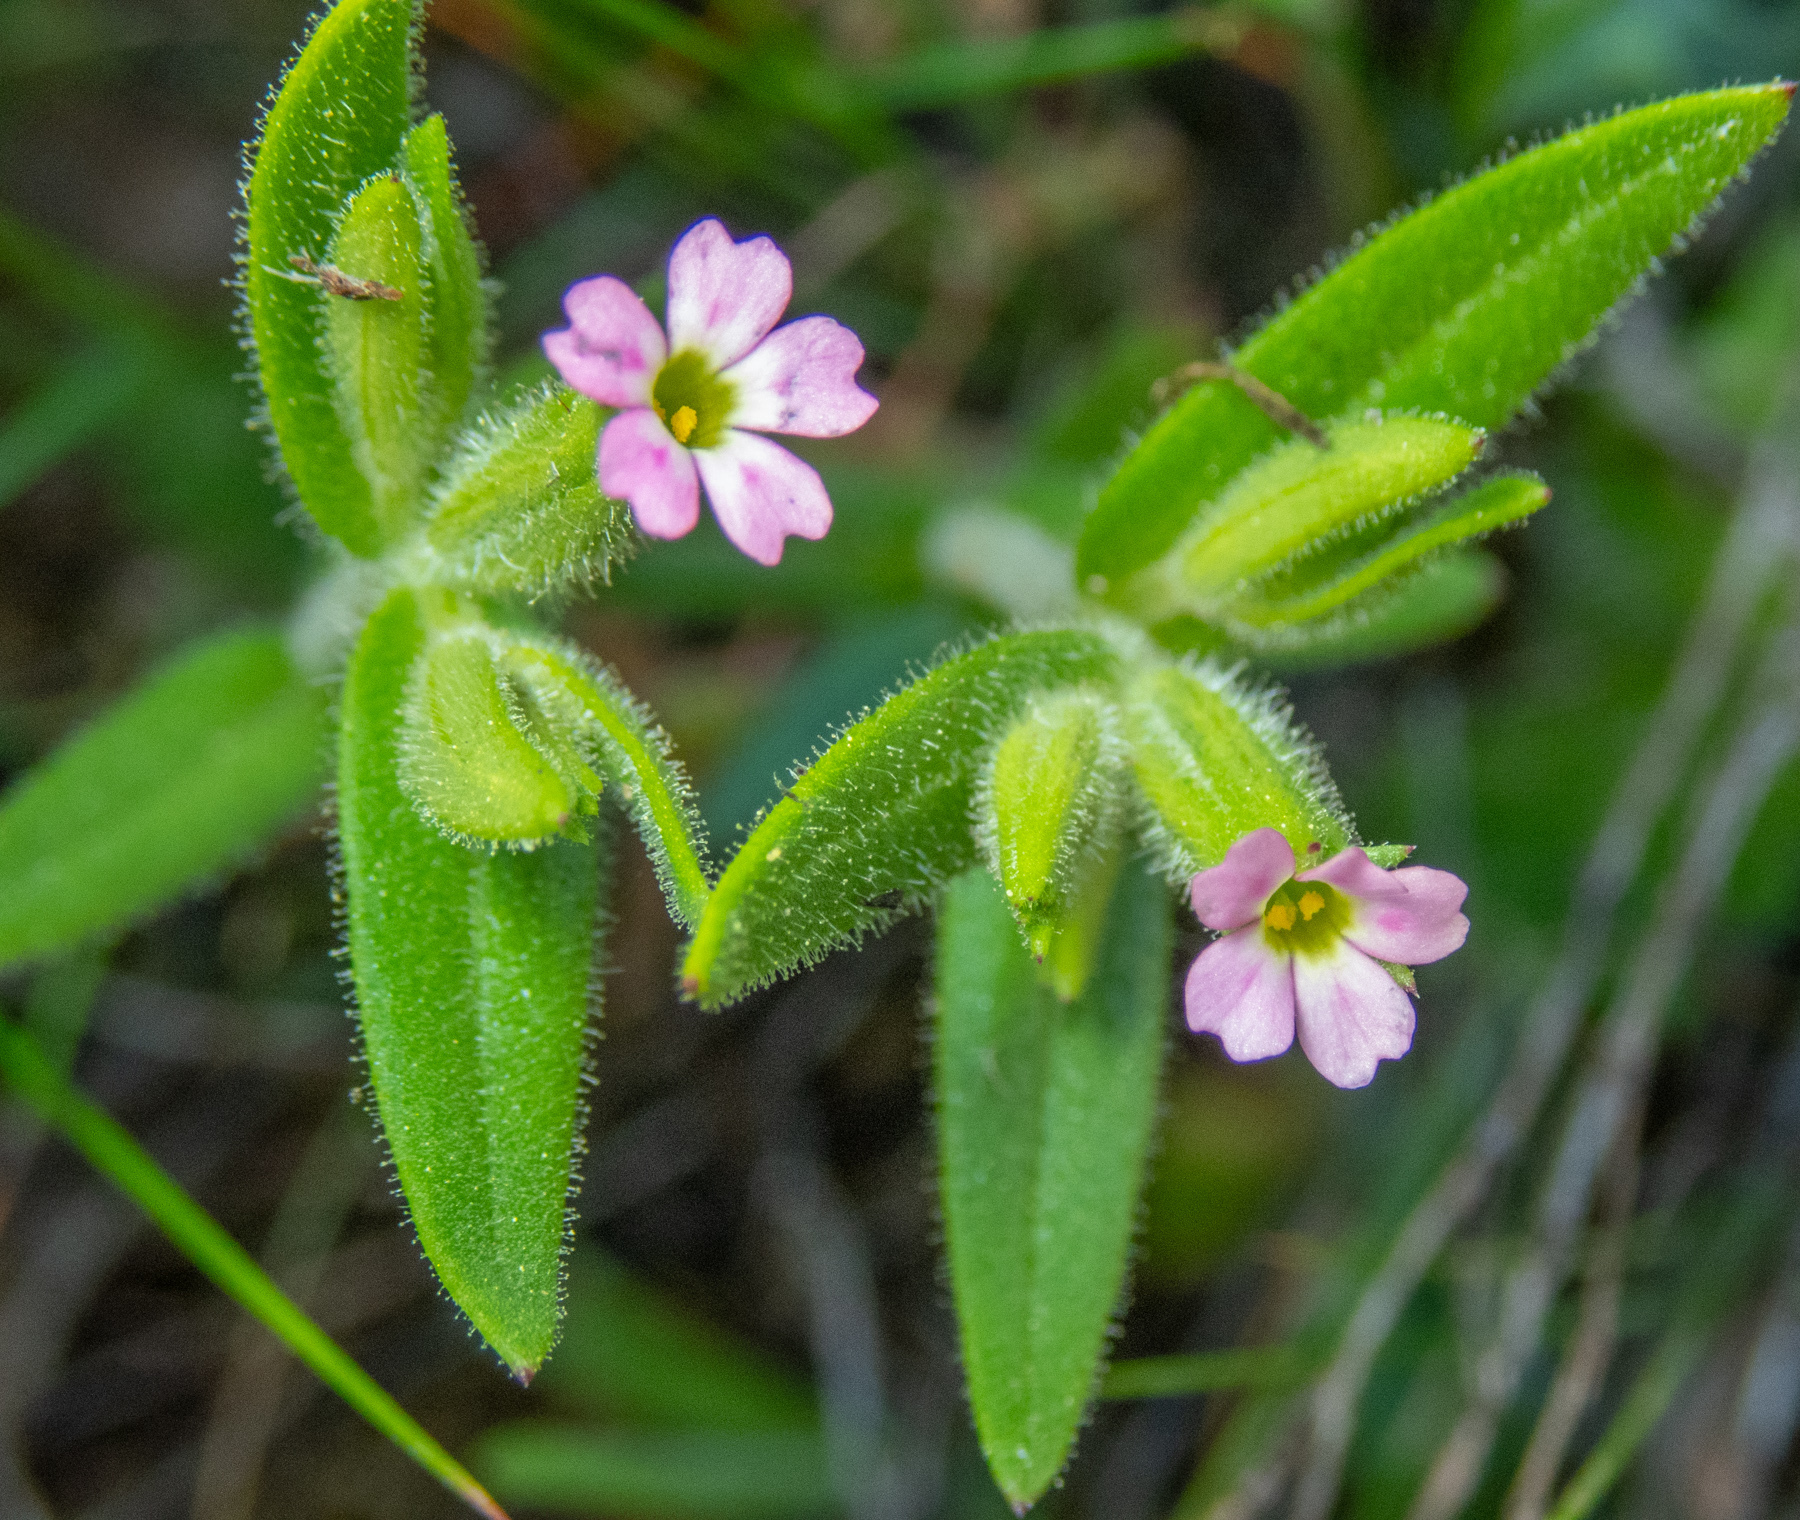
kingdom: Plantae
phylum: Tracheophyta
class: Magnoliopsida
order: Ericales
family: Polemoniaceae
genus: Phlox
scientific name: Phlox gracilis
